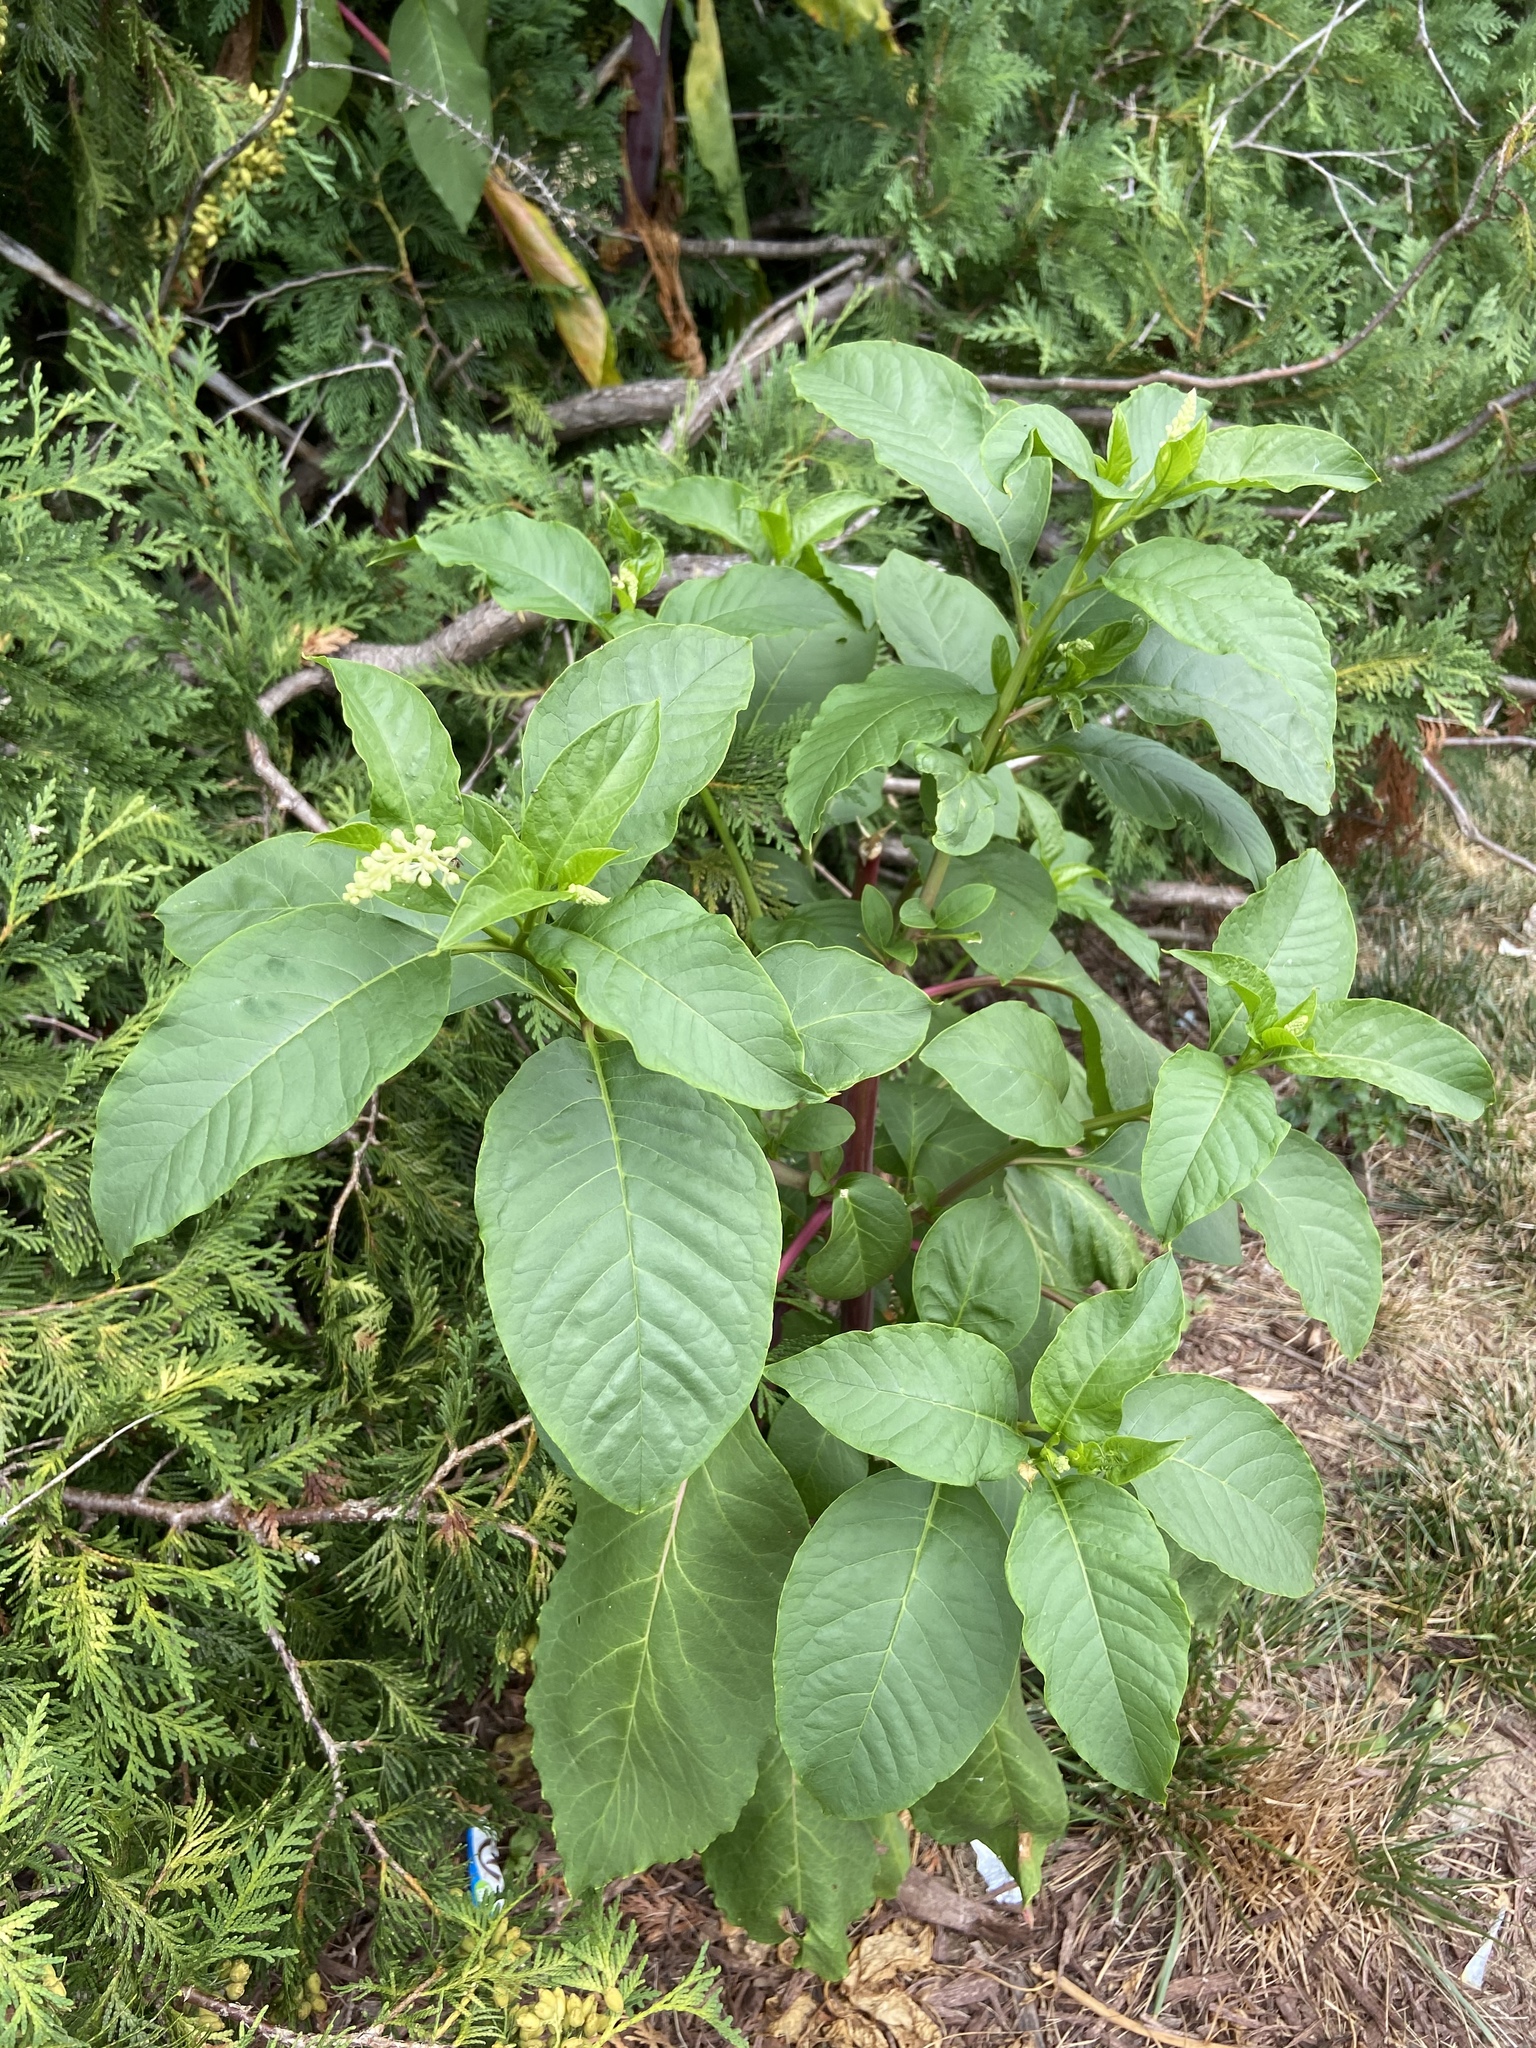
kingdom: Plantae
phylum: Tracheophyta
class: Magnoliopsida
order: Caryophyllales
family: Phytolaccaceae
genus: Phytolacca
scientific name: Phytolacca americana
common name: American pokeweed
